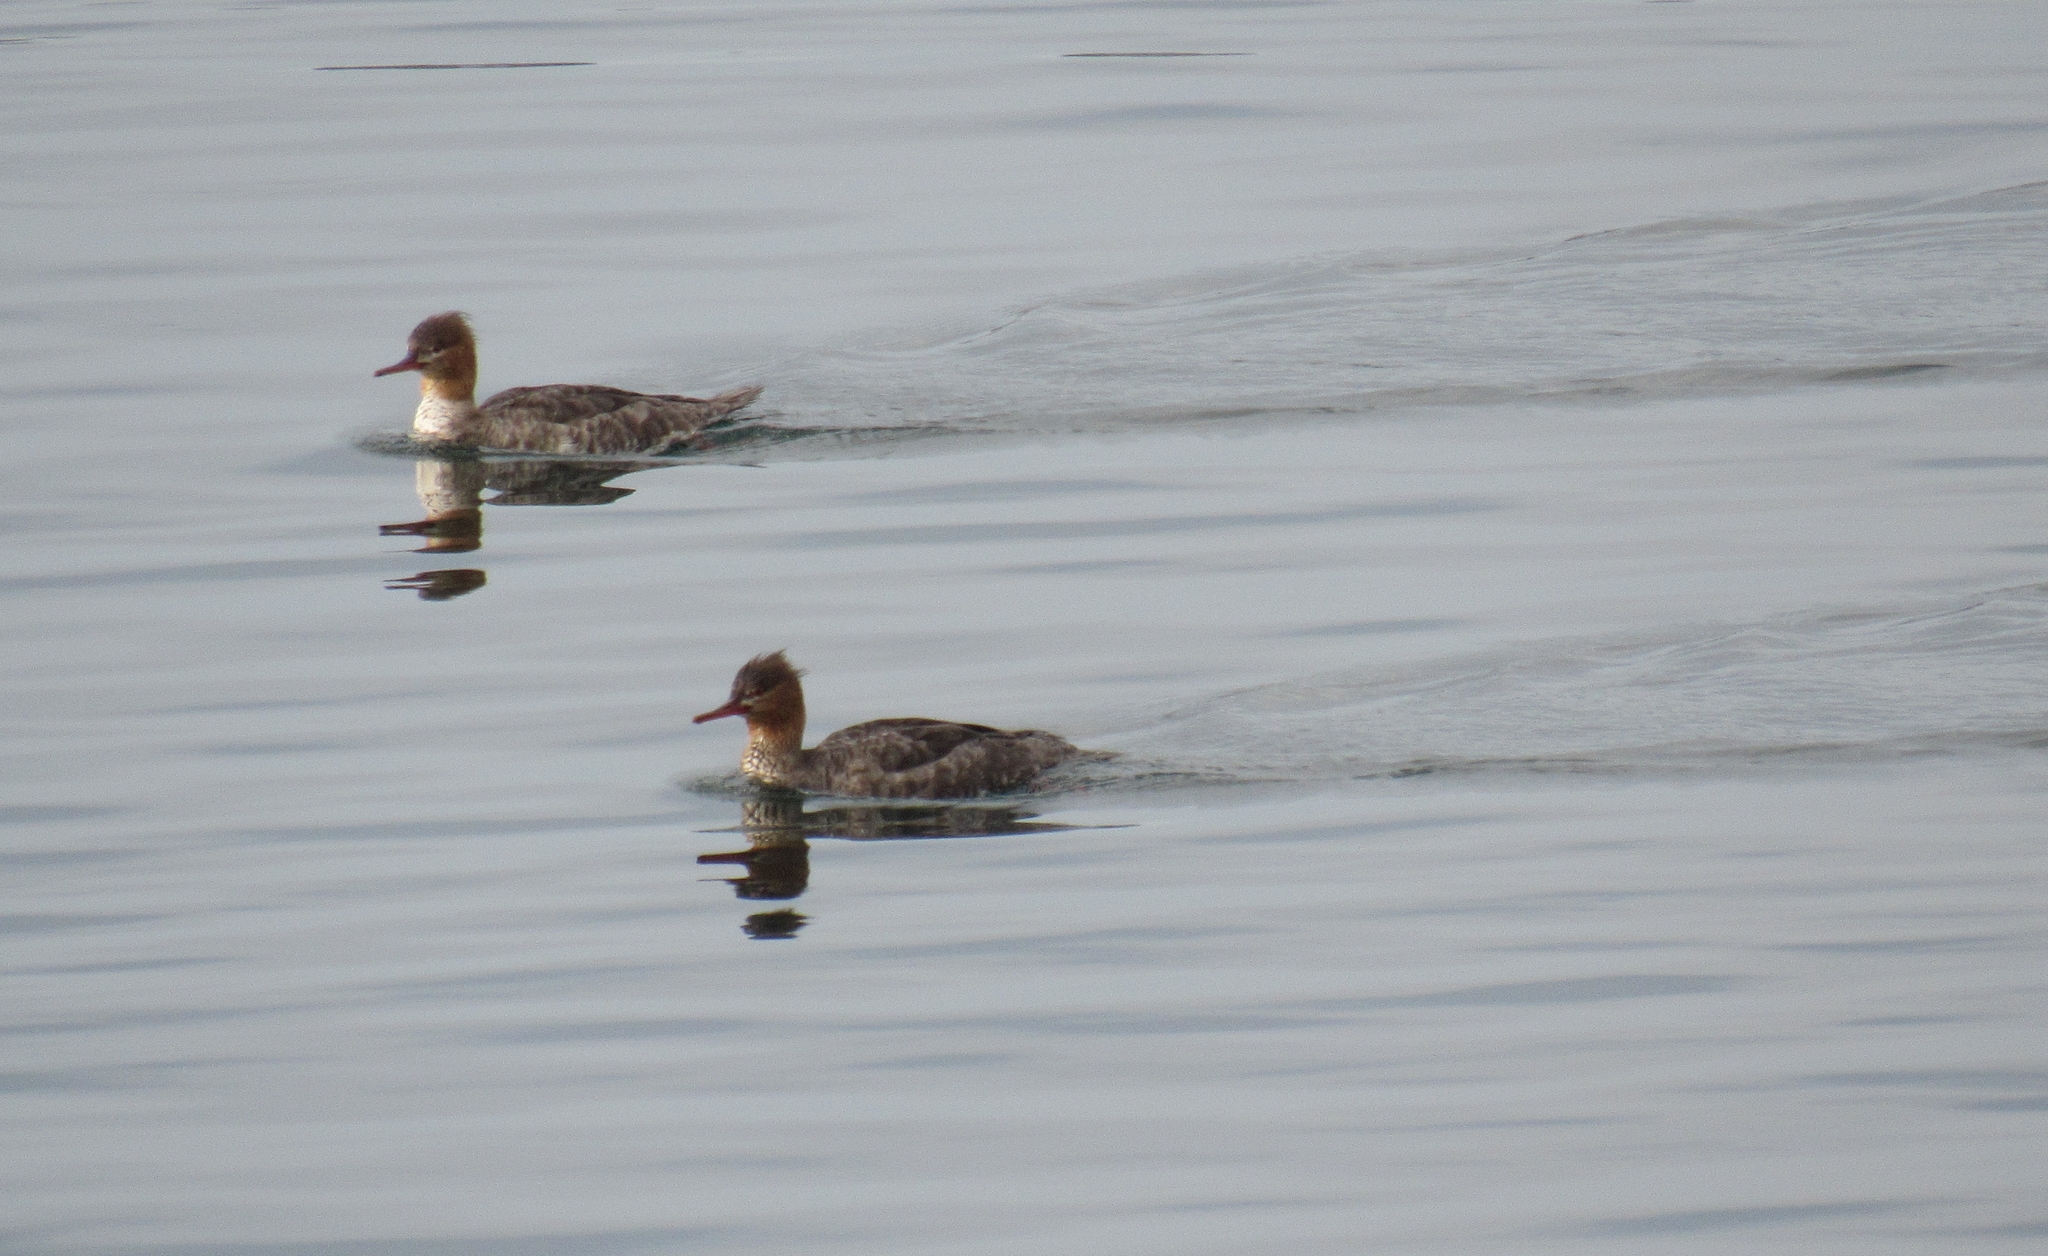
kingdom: Animalia
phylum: Chordata
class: Aves
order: Anseriformes
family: Anatidae
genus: Mergus
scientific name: Mergus serrator
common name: Red-breasted merganser
